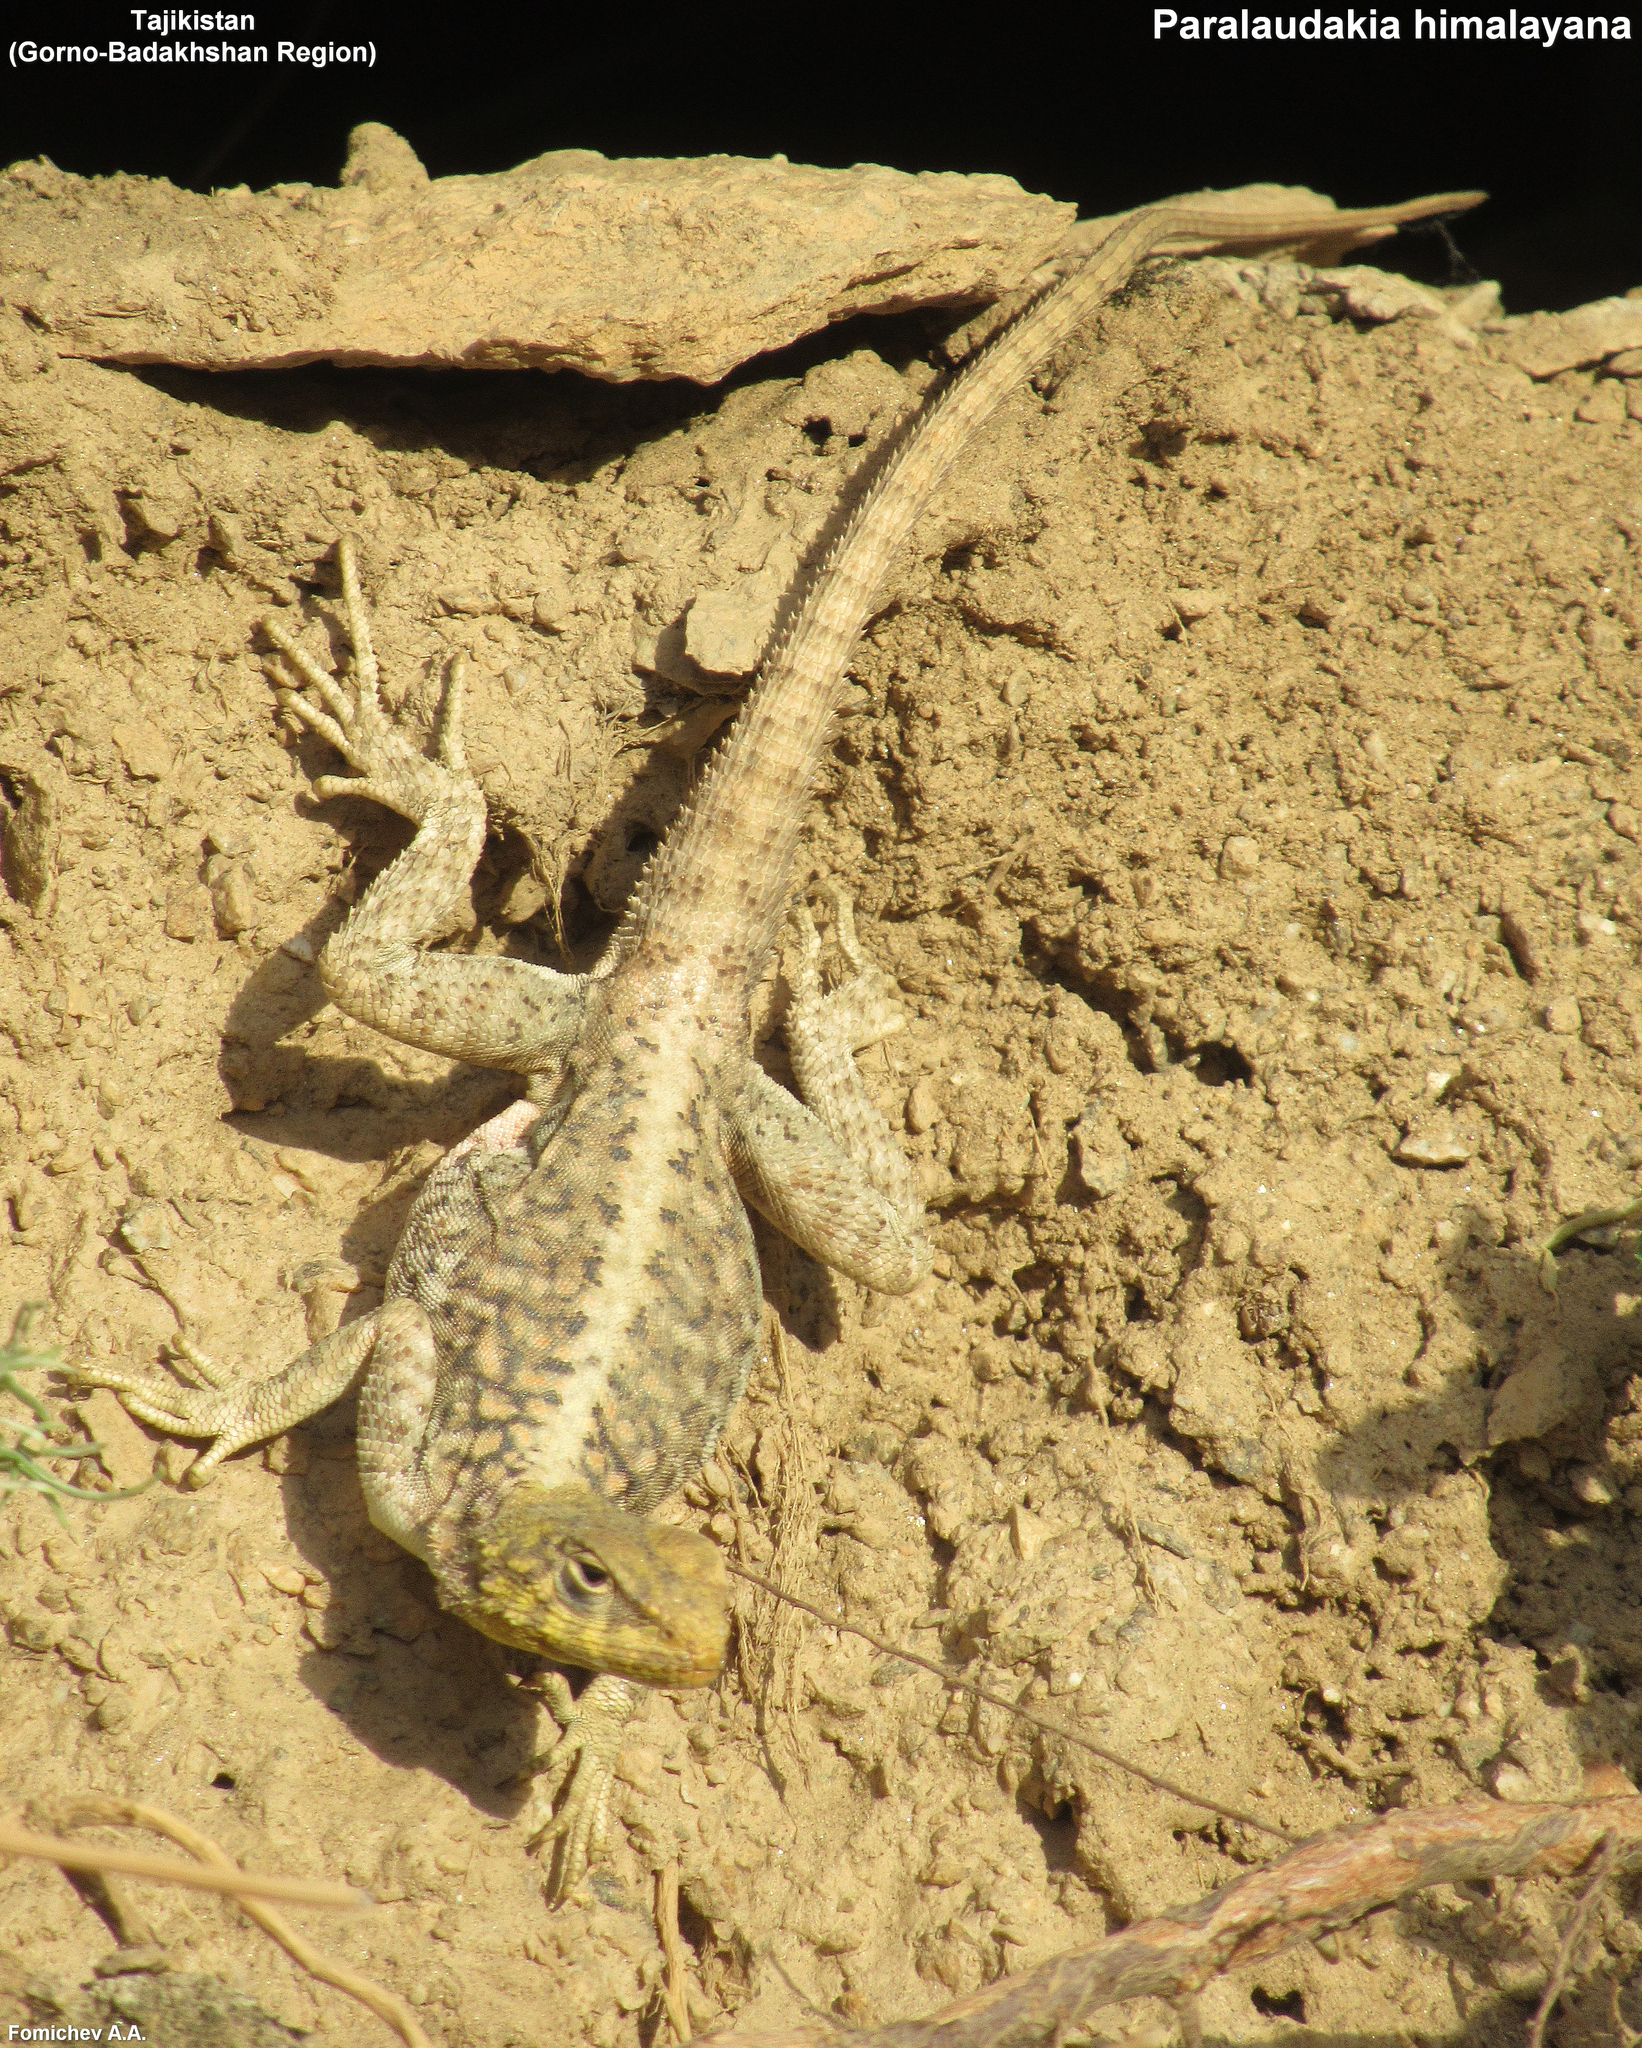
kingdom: Animalia
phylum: Chordata
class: Squamata
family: Agamidae
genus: Paralaudakia
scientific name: Paralaudakia himalayana
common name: Himalayan agama
